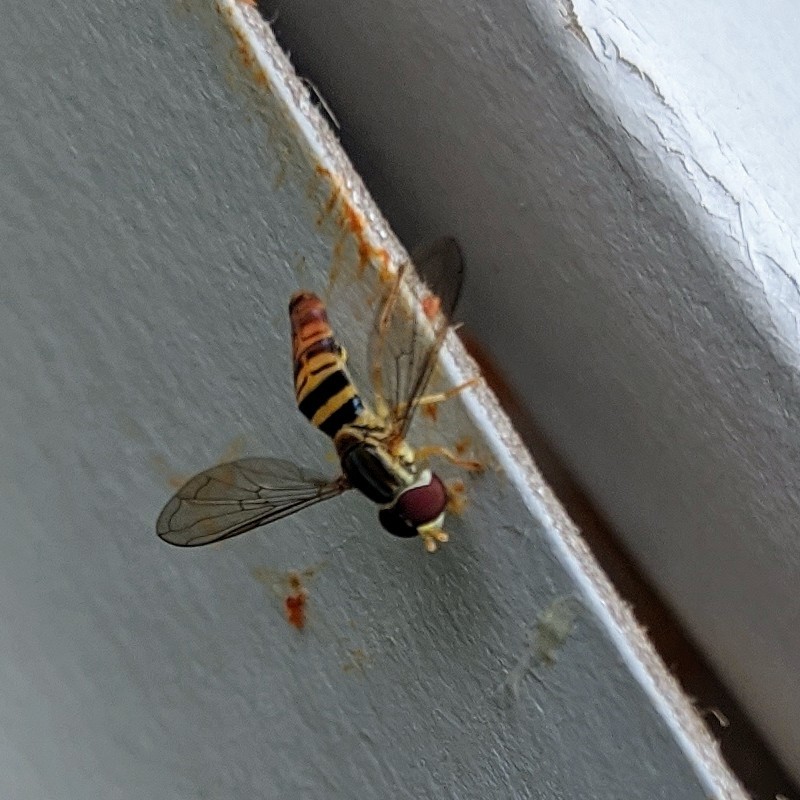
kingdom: Animalia
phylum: Arthropoda
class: Insecta
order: Diptera
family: Syrphidae
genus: Toxomerus
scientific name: Toxomerus politus
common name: Maize calligrapher
